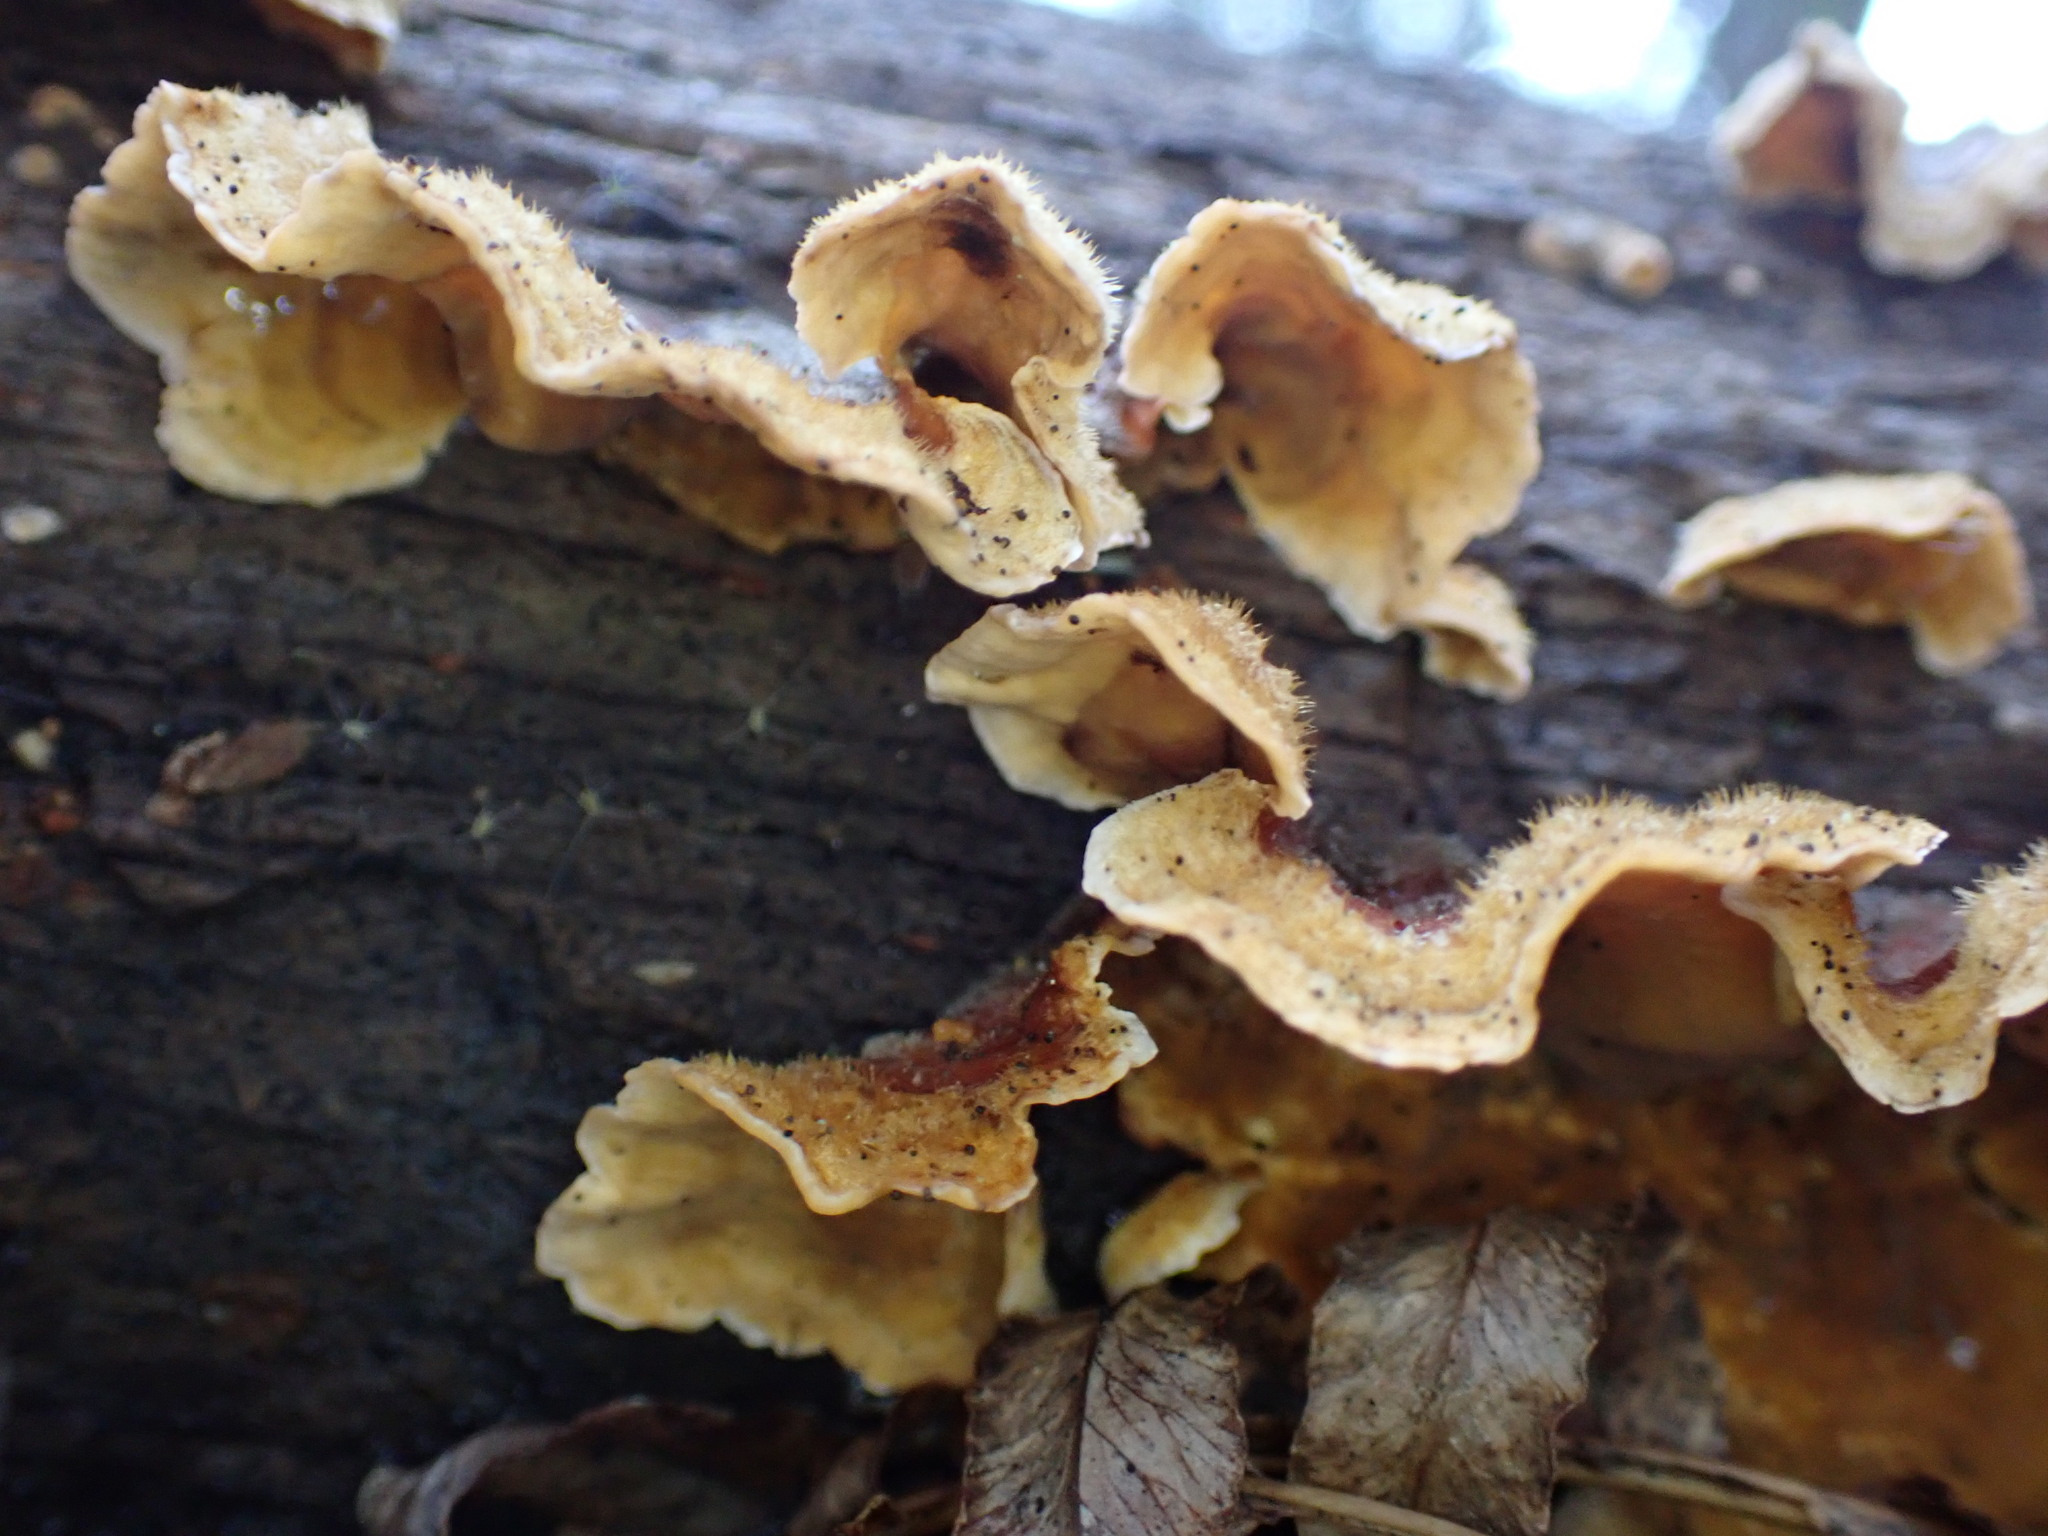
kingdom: Fungi
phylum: Basidiomycota
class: Agaricomycetes
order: Polyporales
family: Polyporaceae
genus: Trametes
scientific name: Trametes versicolor
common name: Turkeytail
